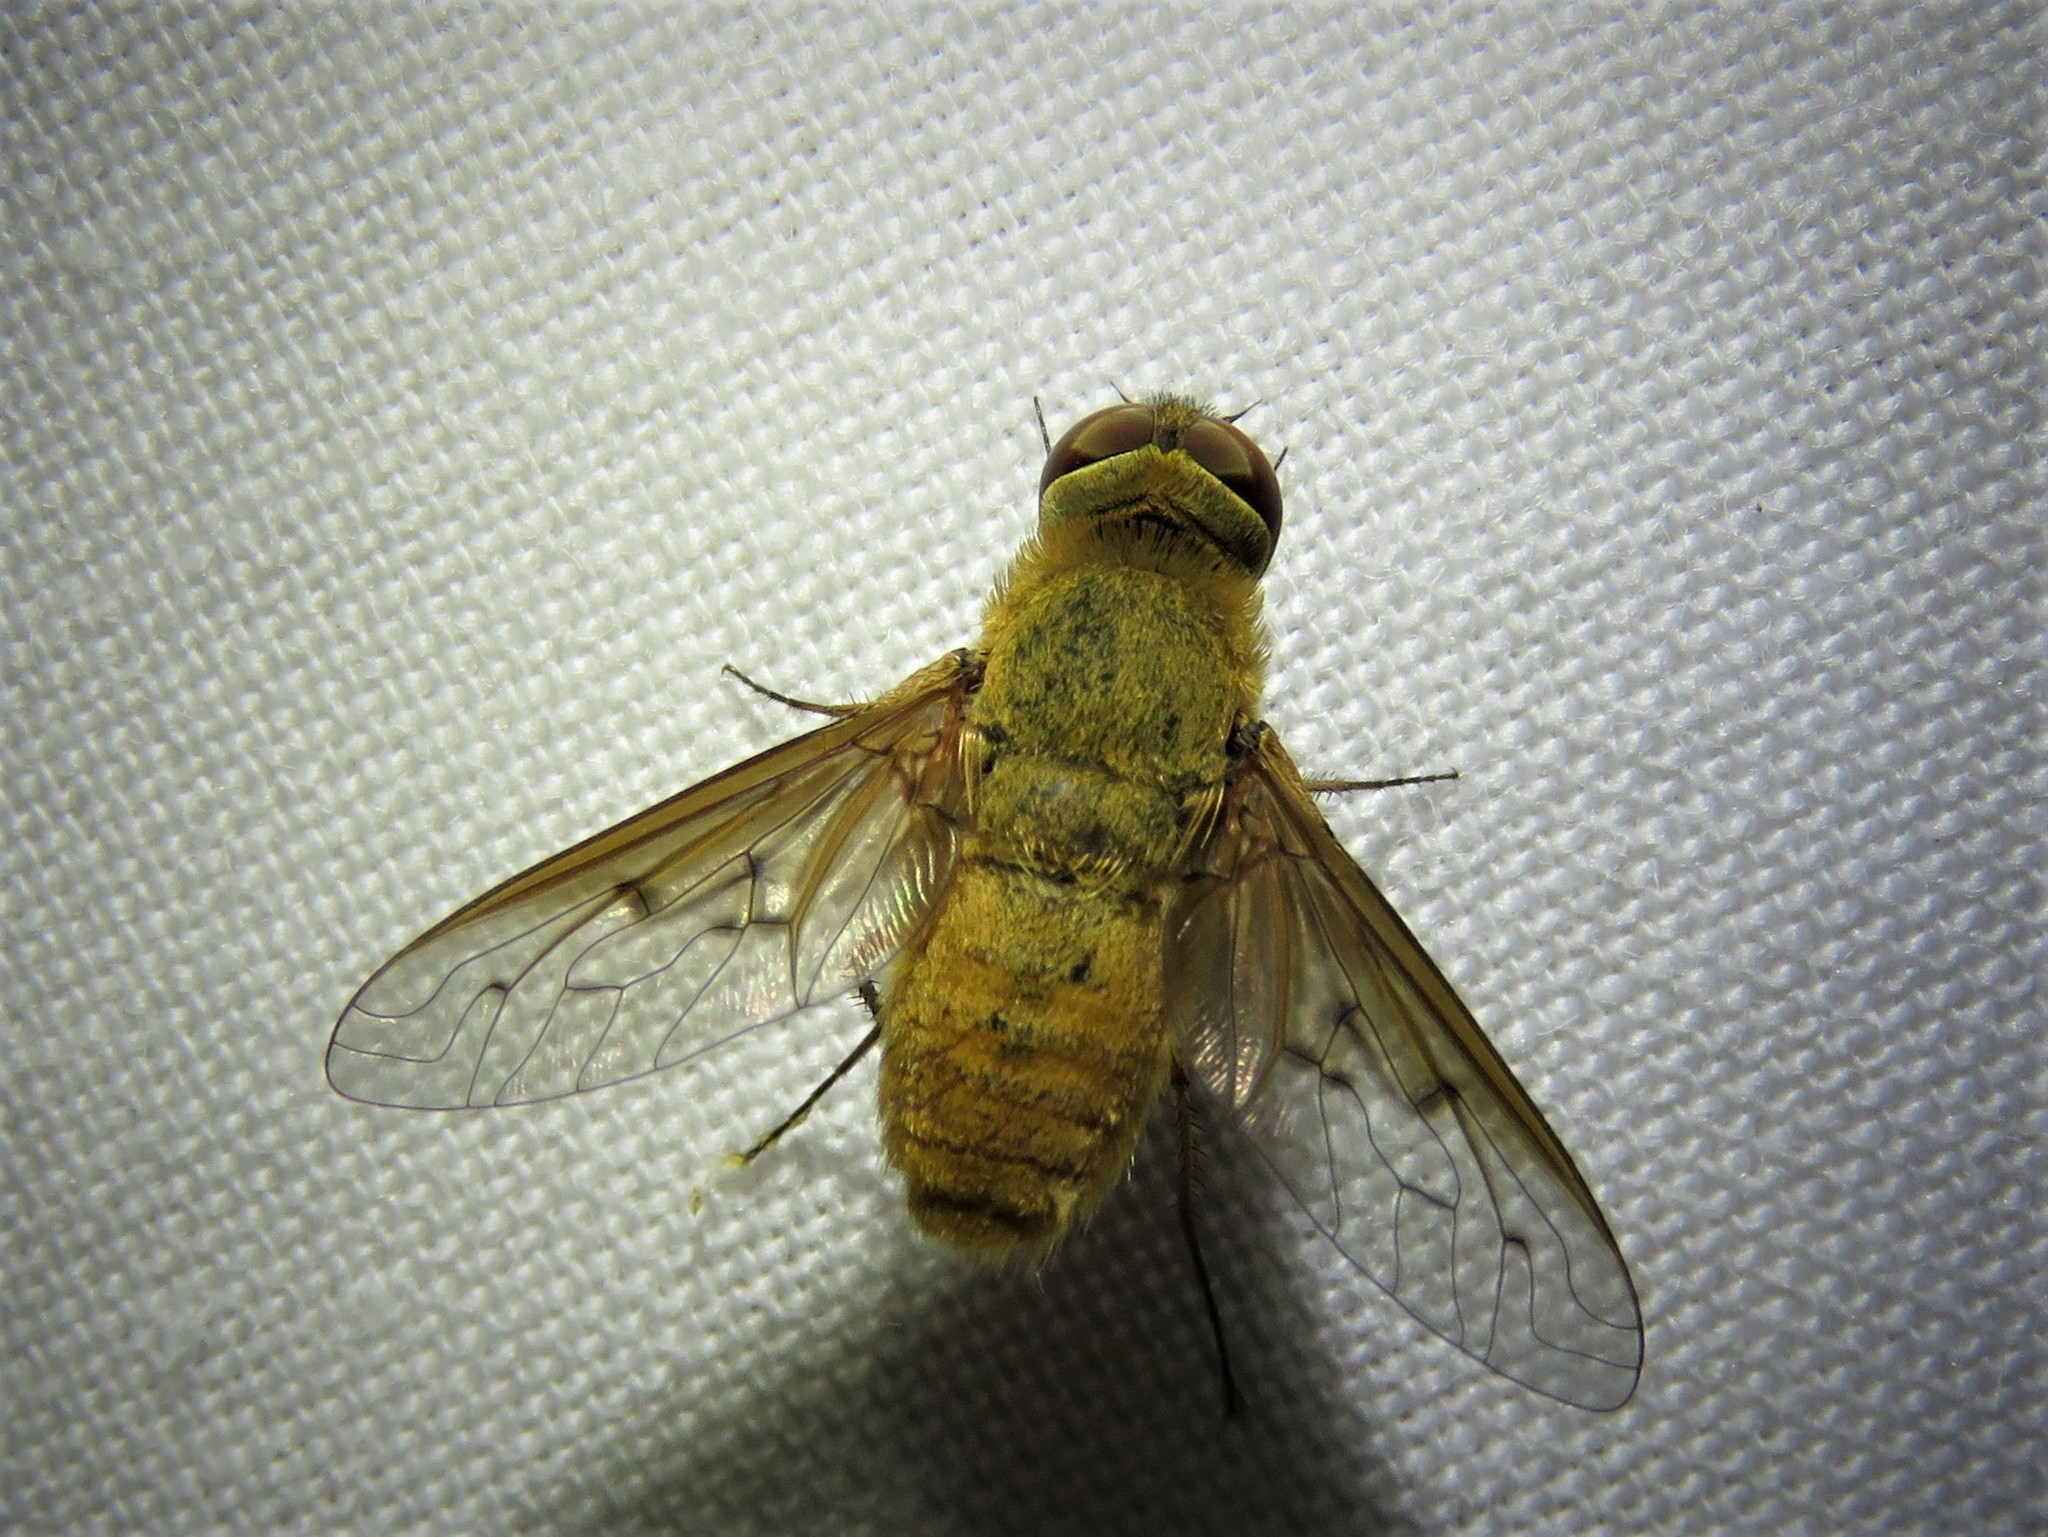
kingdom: Animalia
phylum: Arthropoda
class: Insecta
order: Diptera
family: Bombyliidae
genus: Chrysanthrax
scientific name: Chrysanthrax edititius
